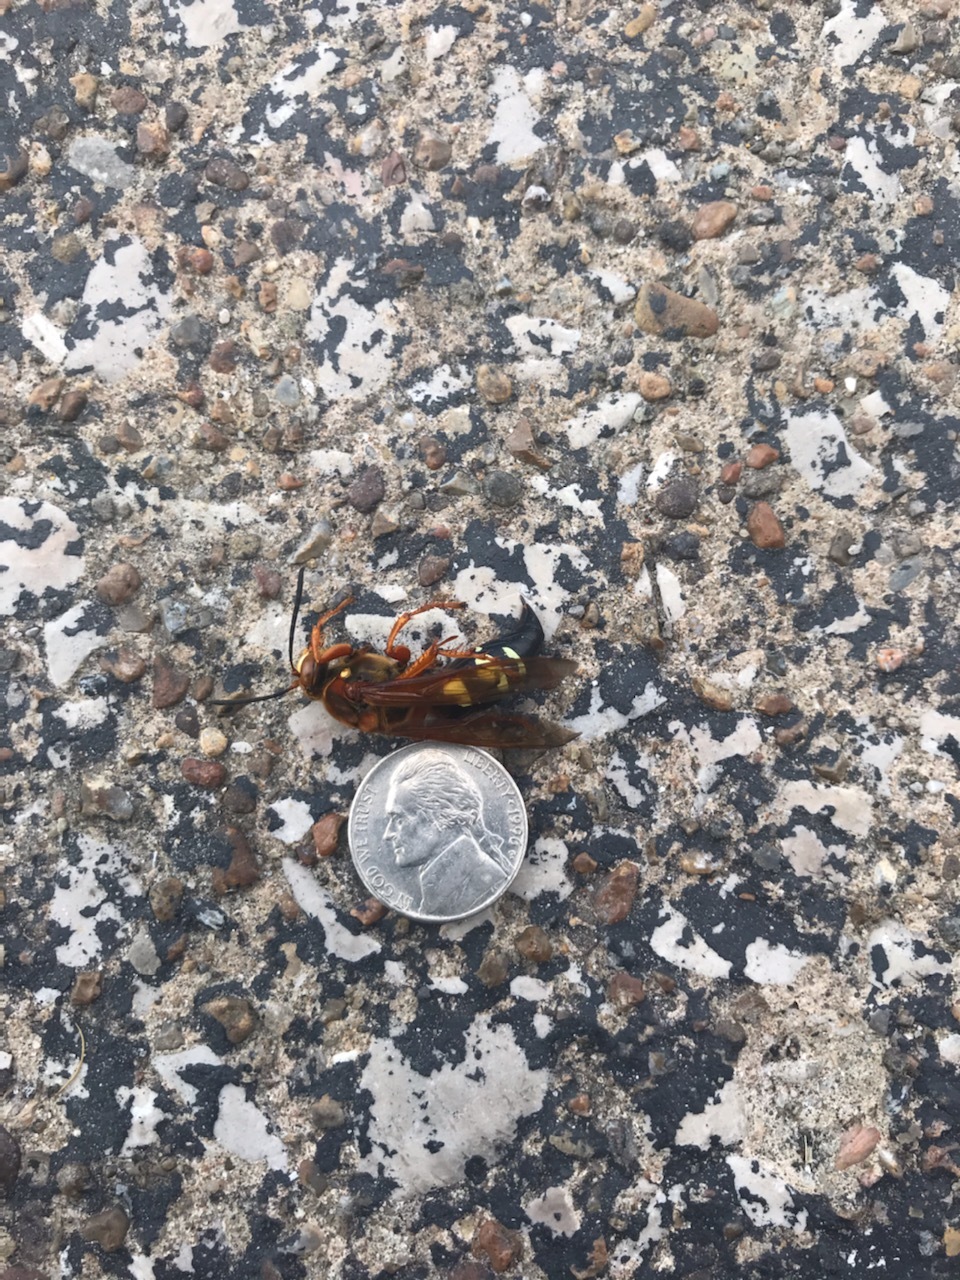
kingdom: Animalia
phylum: Arthropoda
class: Insecta
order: Hymenoptera
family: Crabronidae
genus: Sphecius
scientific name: Sphecius speciosus
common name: Cicada killer
